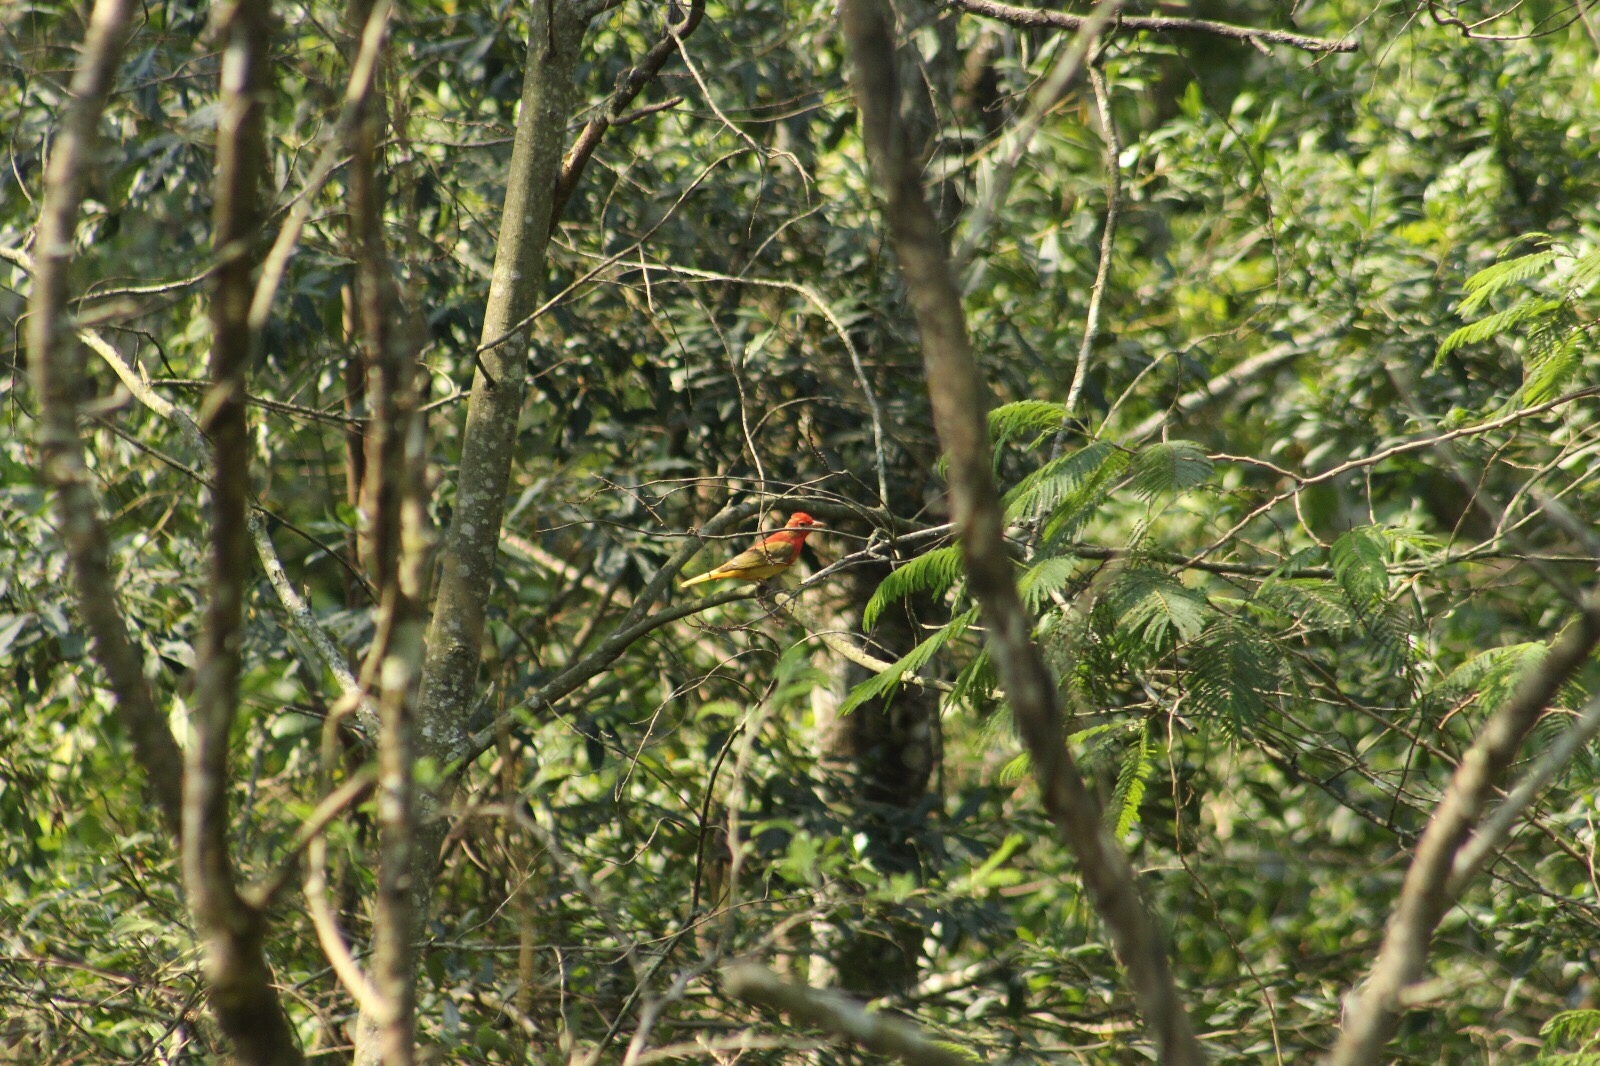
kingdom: Animalia
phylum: Chordata
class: Aves
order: Passeriformes
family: Cardinalidae
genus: Piranga
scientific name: Piranga rubra
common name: Summer tanager
